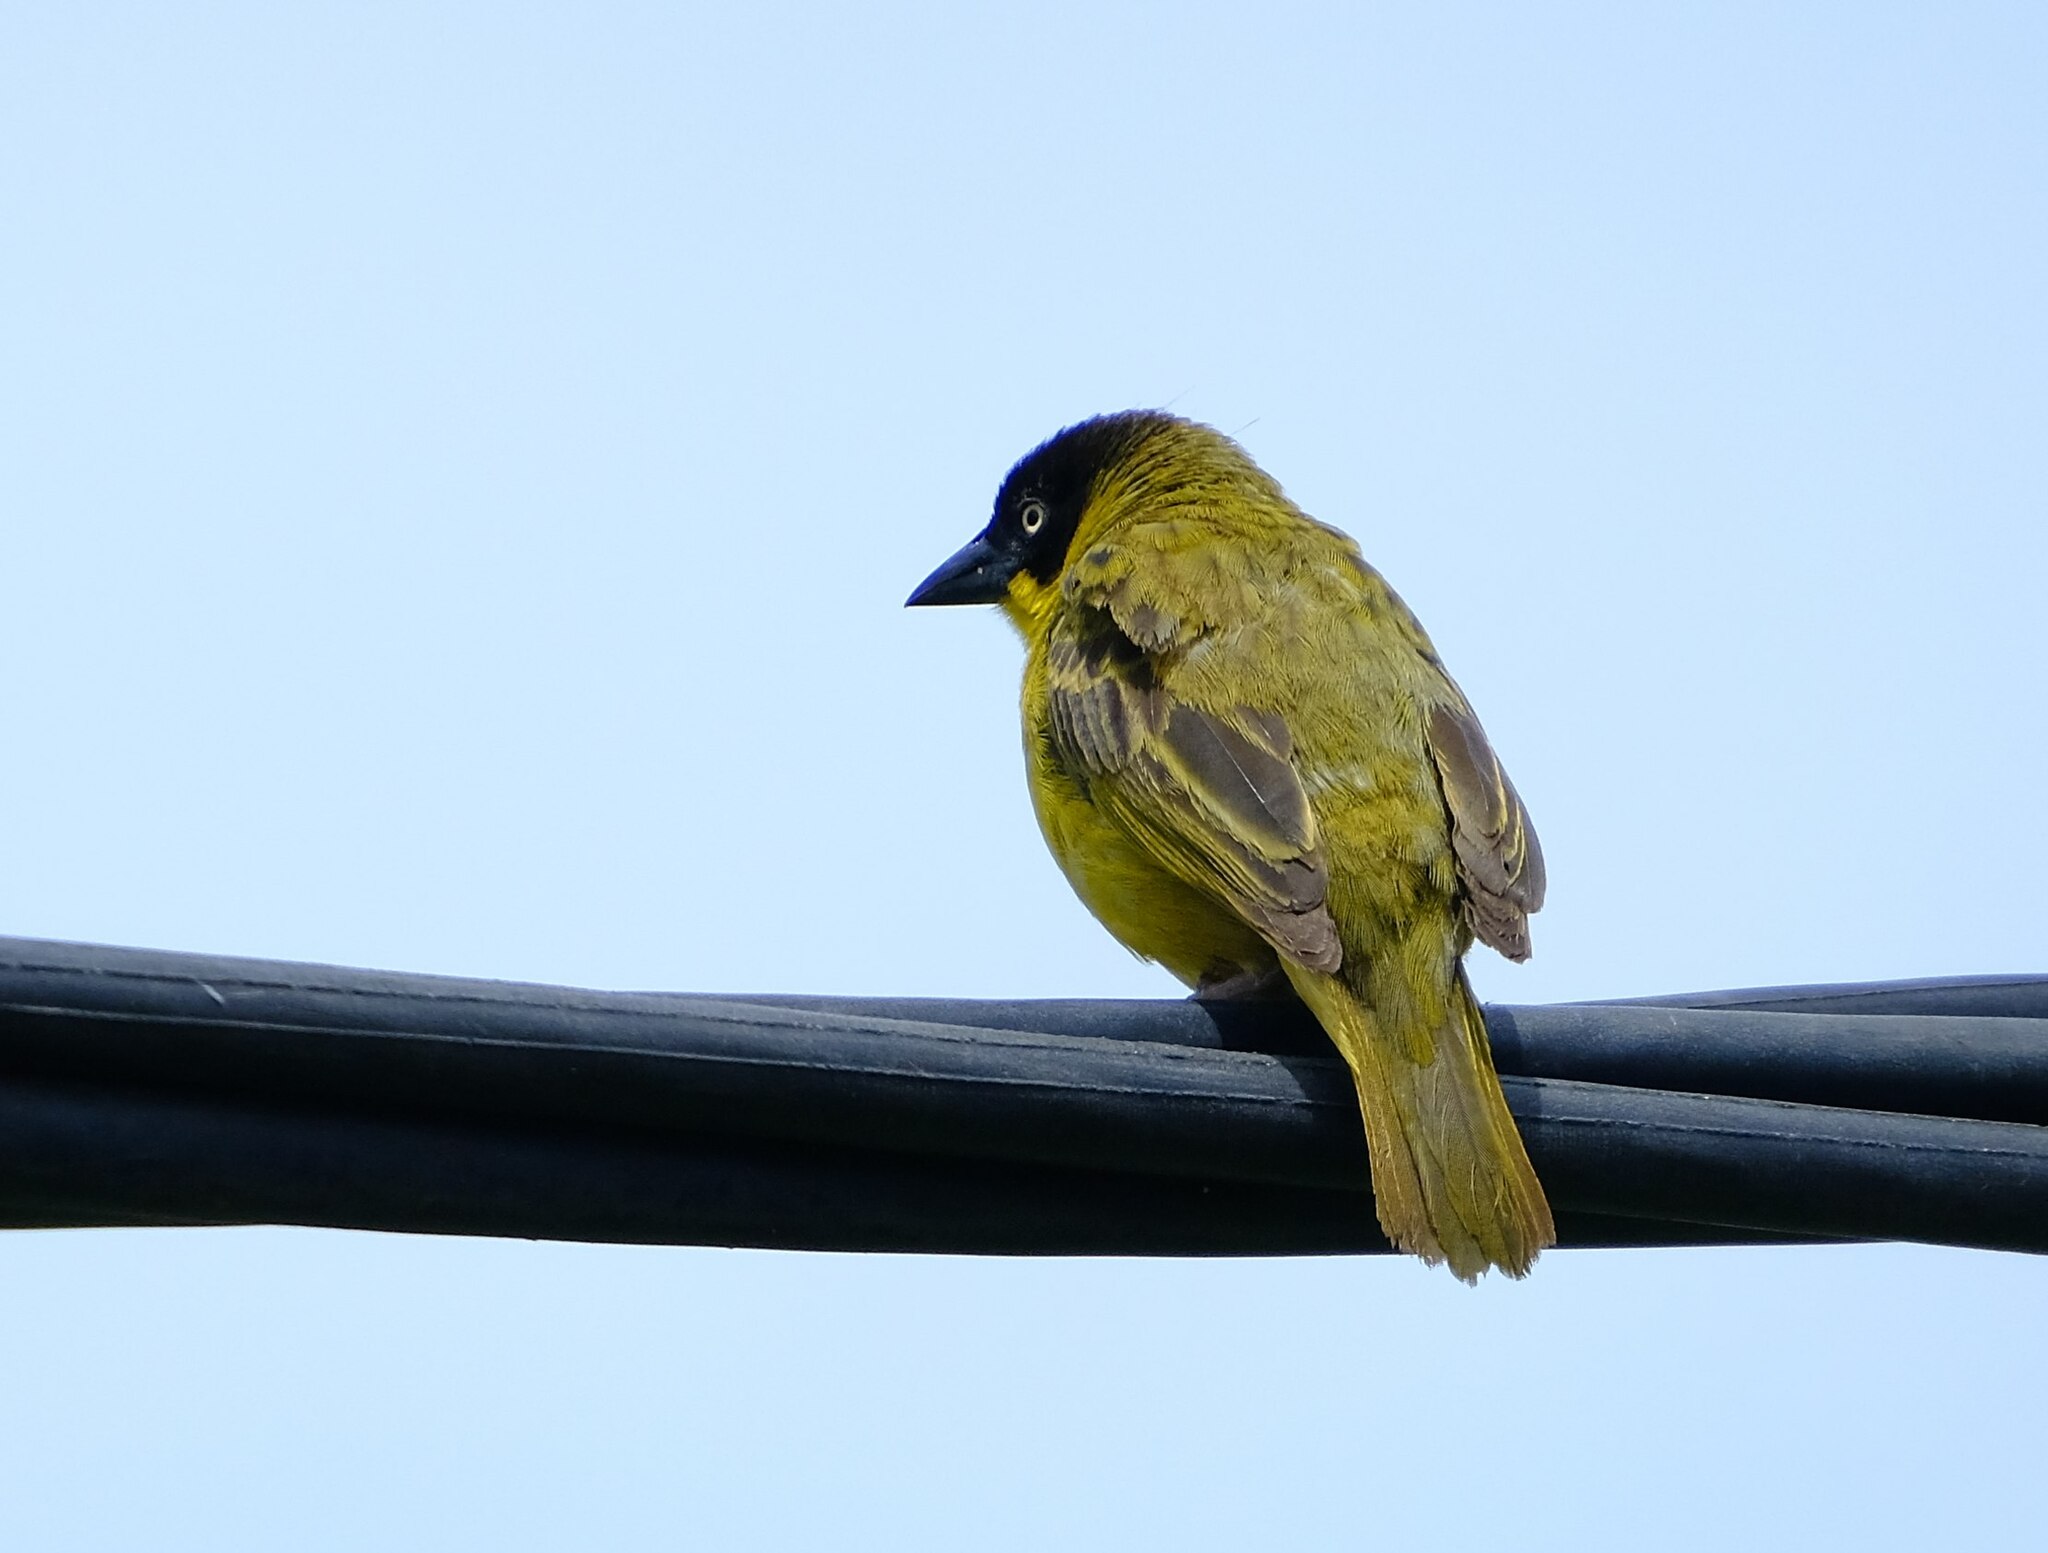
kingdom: Animalia
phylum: Chordata
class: Aves
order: Passeriformes
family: Ploceidae
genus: Ploceus
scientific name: Ploceus baglafecht
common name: Baglafecht weaver
